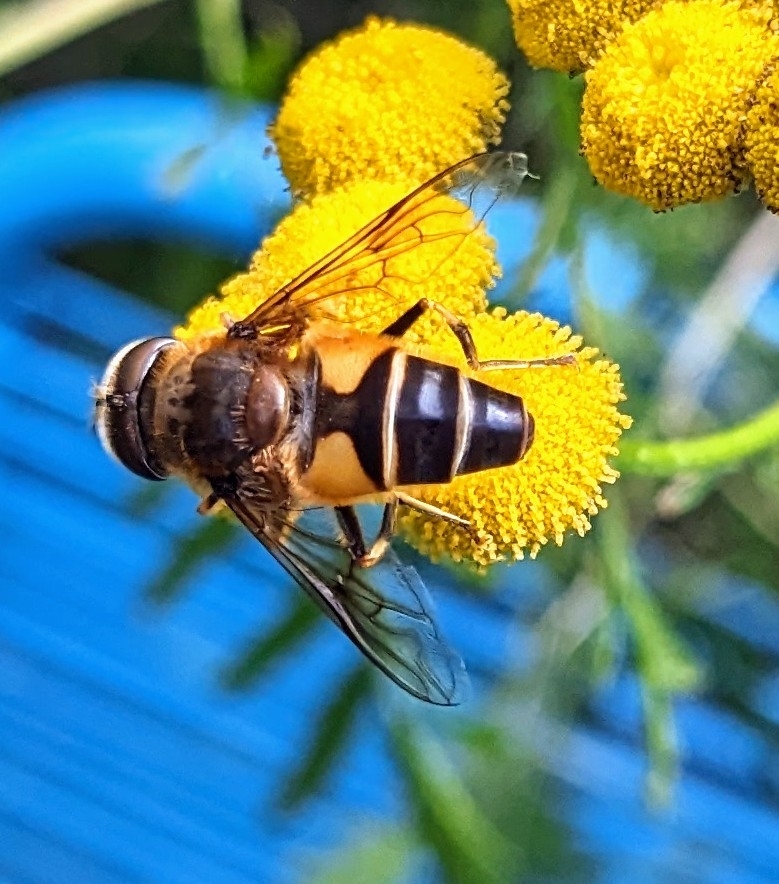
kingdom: Animalia
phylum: Arthropoda
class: Insecta
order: Diptera
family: Syrphidae
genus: Eristalis
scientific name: Eristalis pertinax
